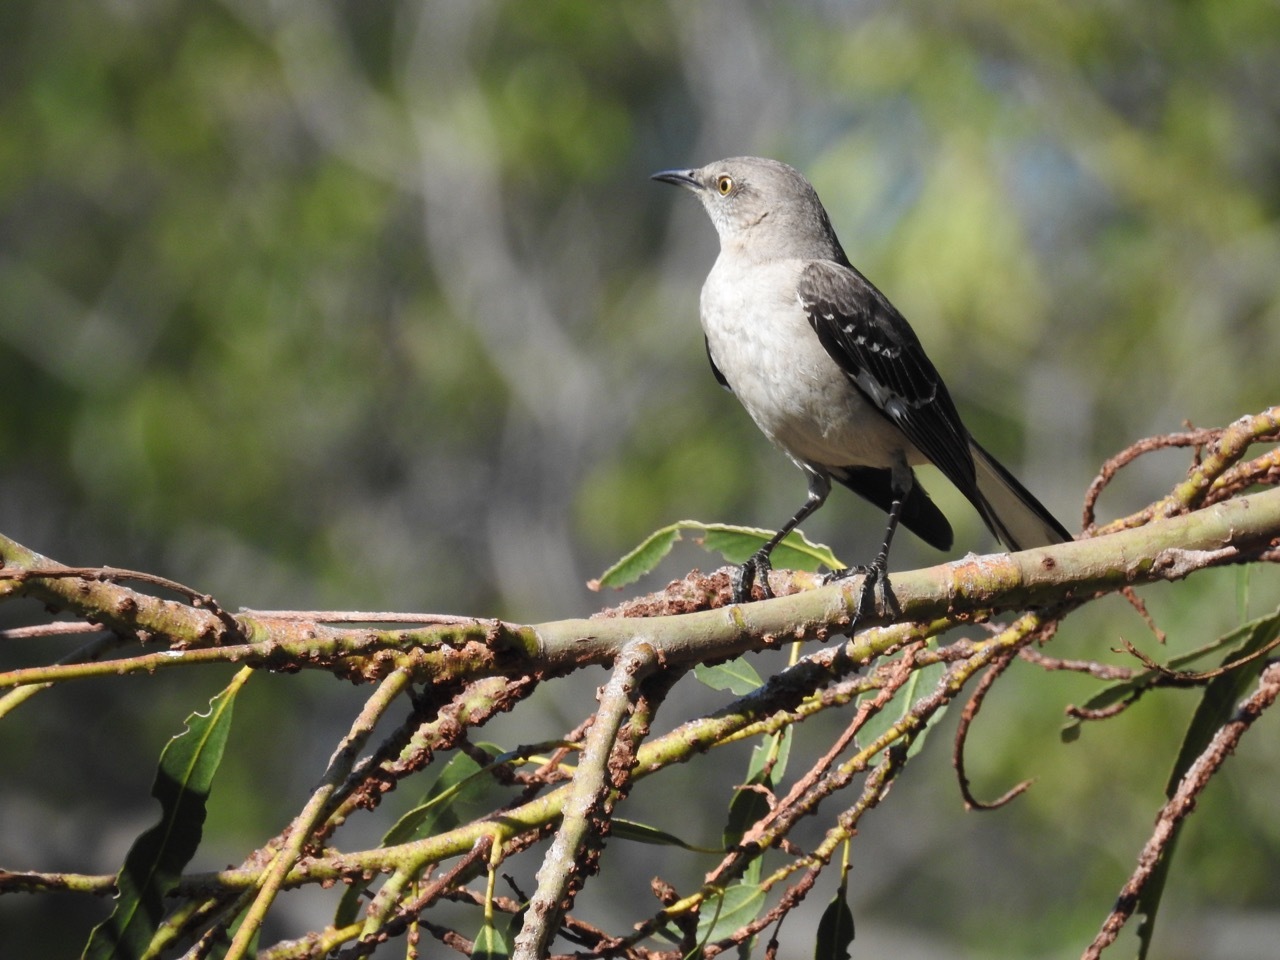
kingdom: Animalia
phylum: Chordata
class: Aves
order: Passeriformes
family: Mimidae
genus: Mimus
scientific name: Mimus polyglottos
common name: Northern mockingbird
